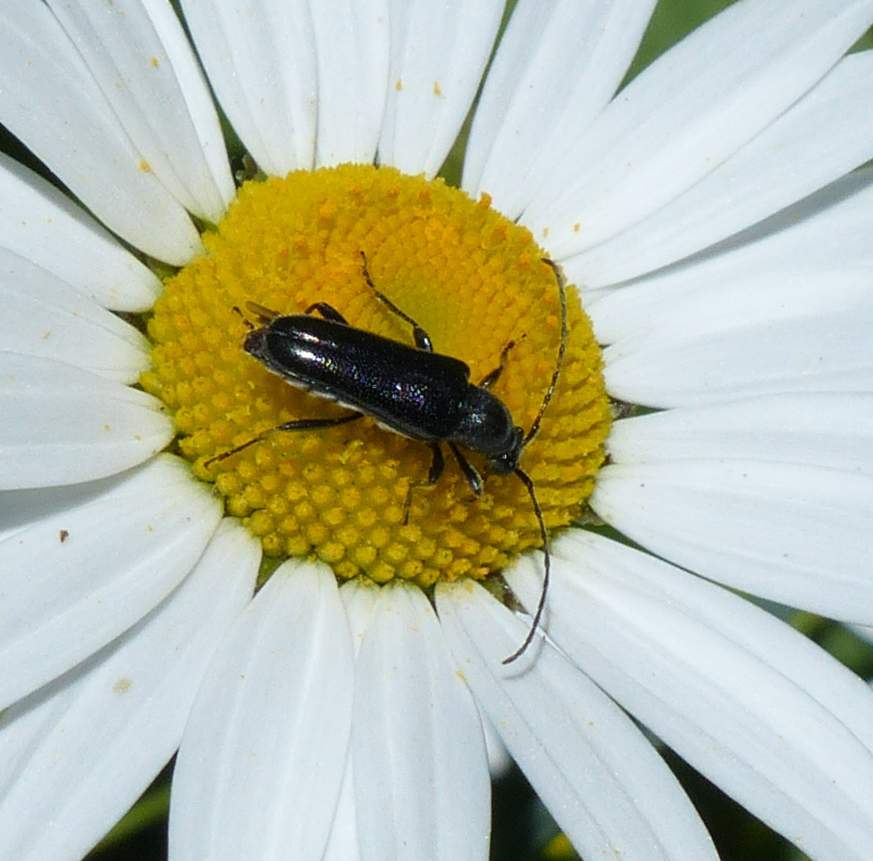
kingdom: Animalia
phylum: Arthropoda
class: Insecta
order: Coleoptera
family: Cerambycidae
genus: Anoplodera
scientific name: Anoplodera pubera
